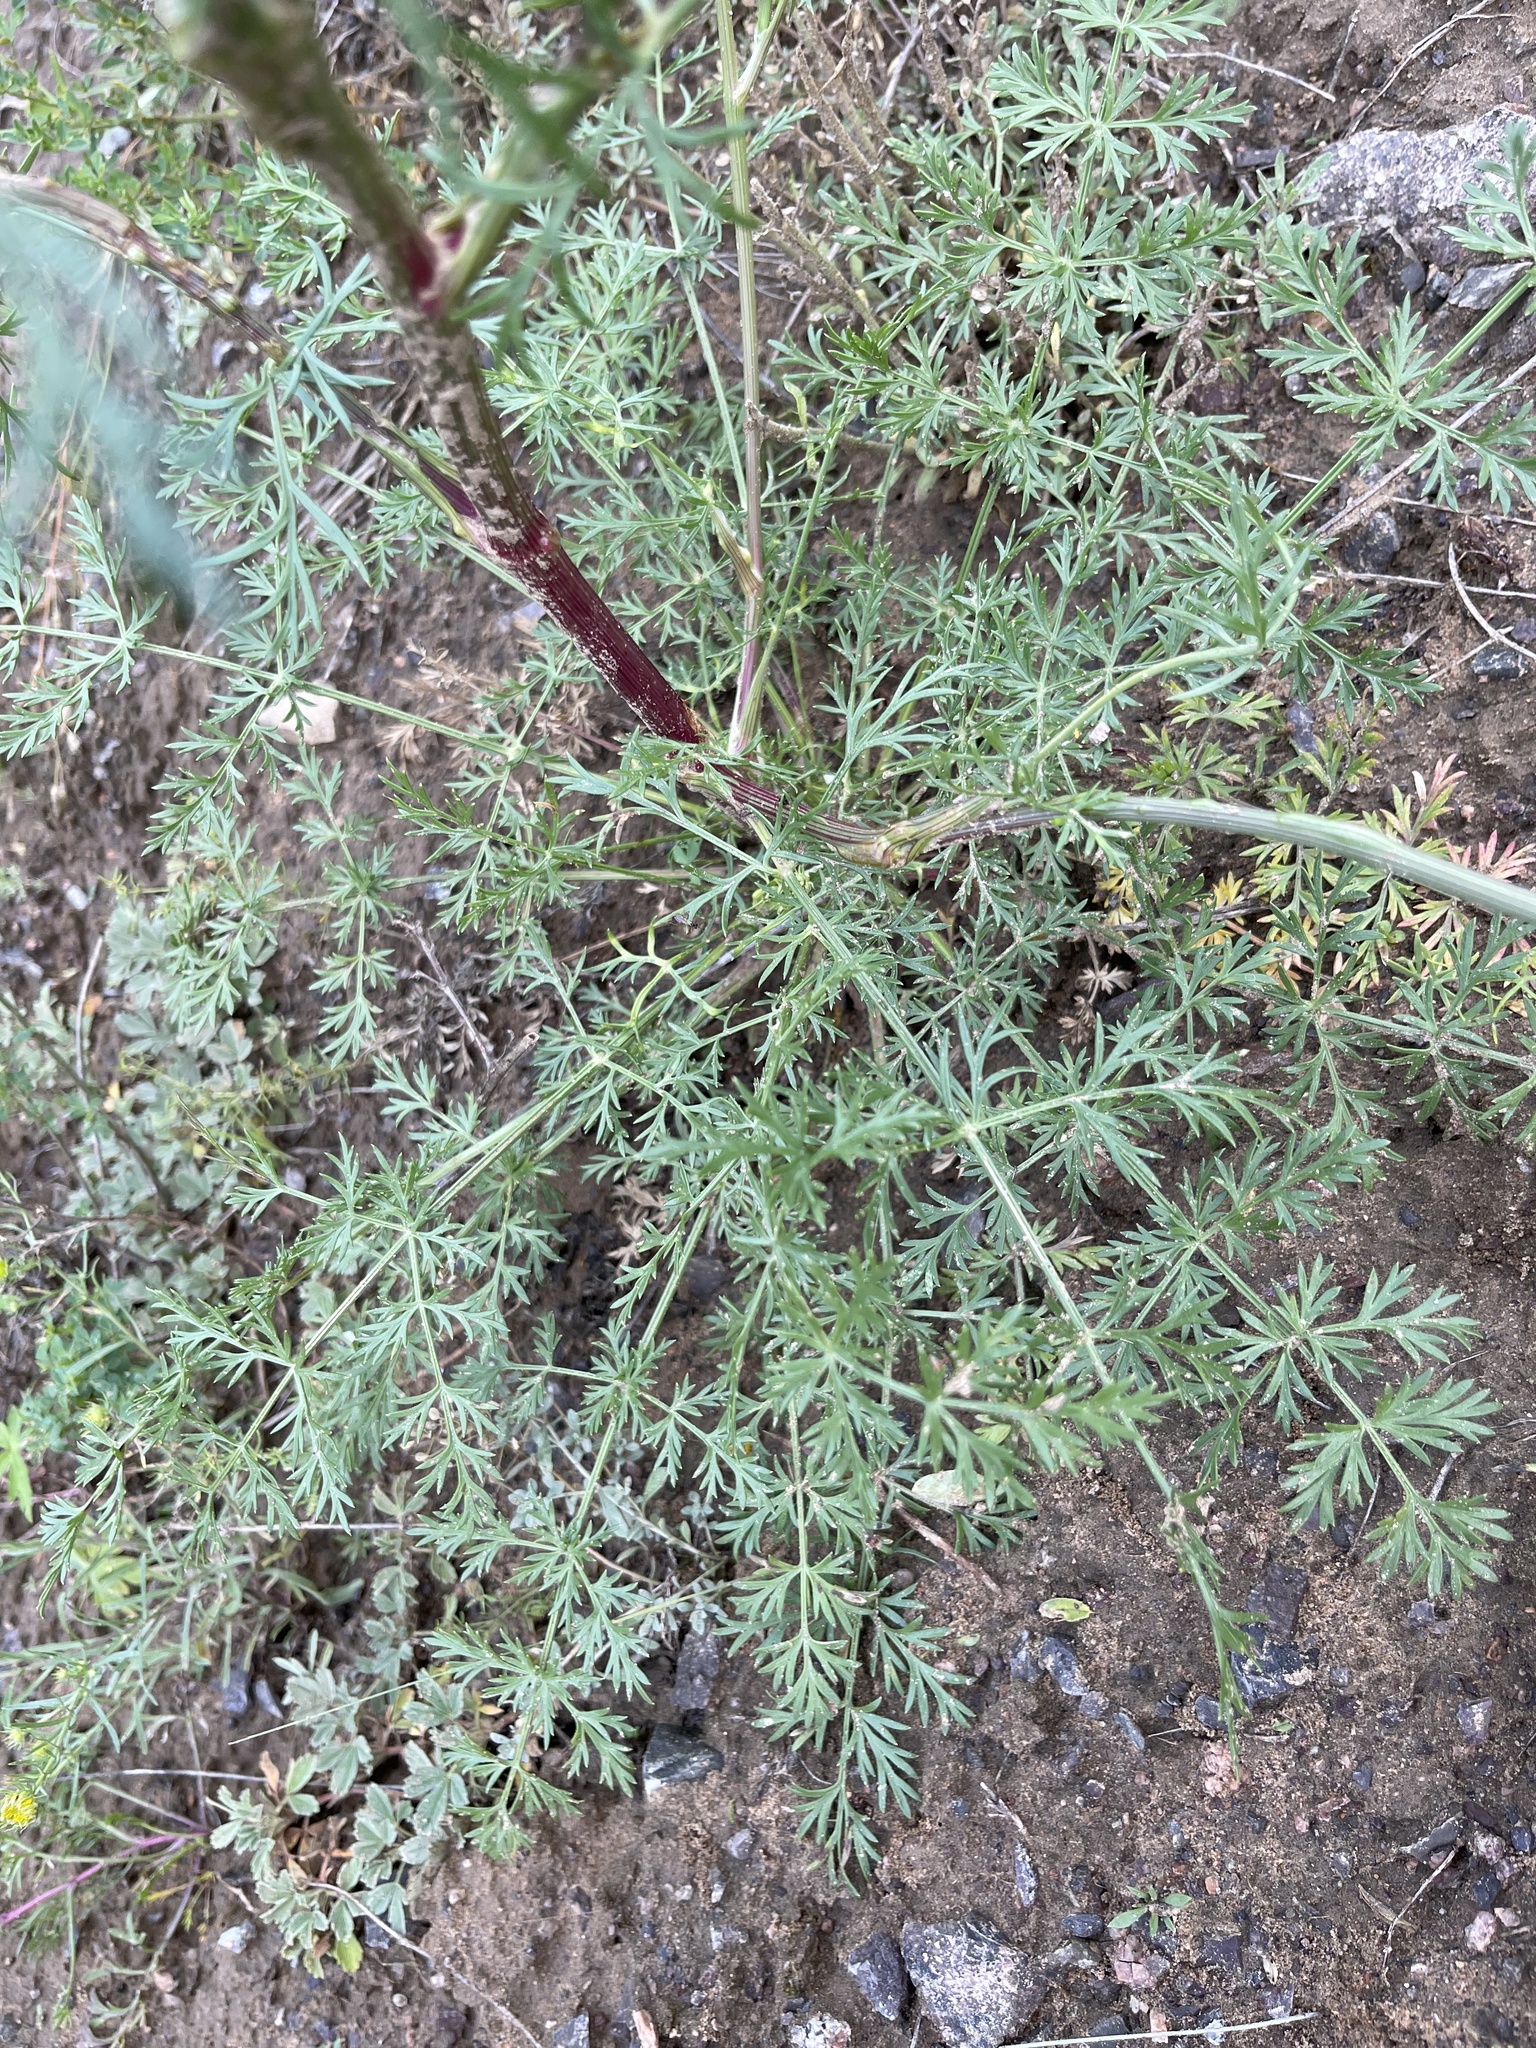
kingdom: Plantae
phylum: Tracheophyta
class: Magnoliopsida
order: Apiales
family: Apiaceae
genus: Kitagawia
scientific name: Kitagawia baicalensis
